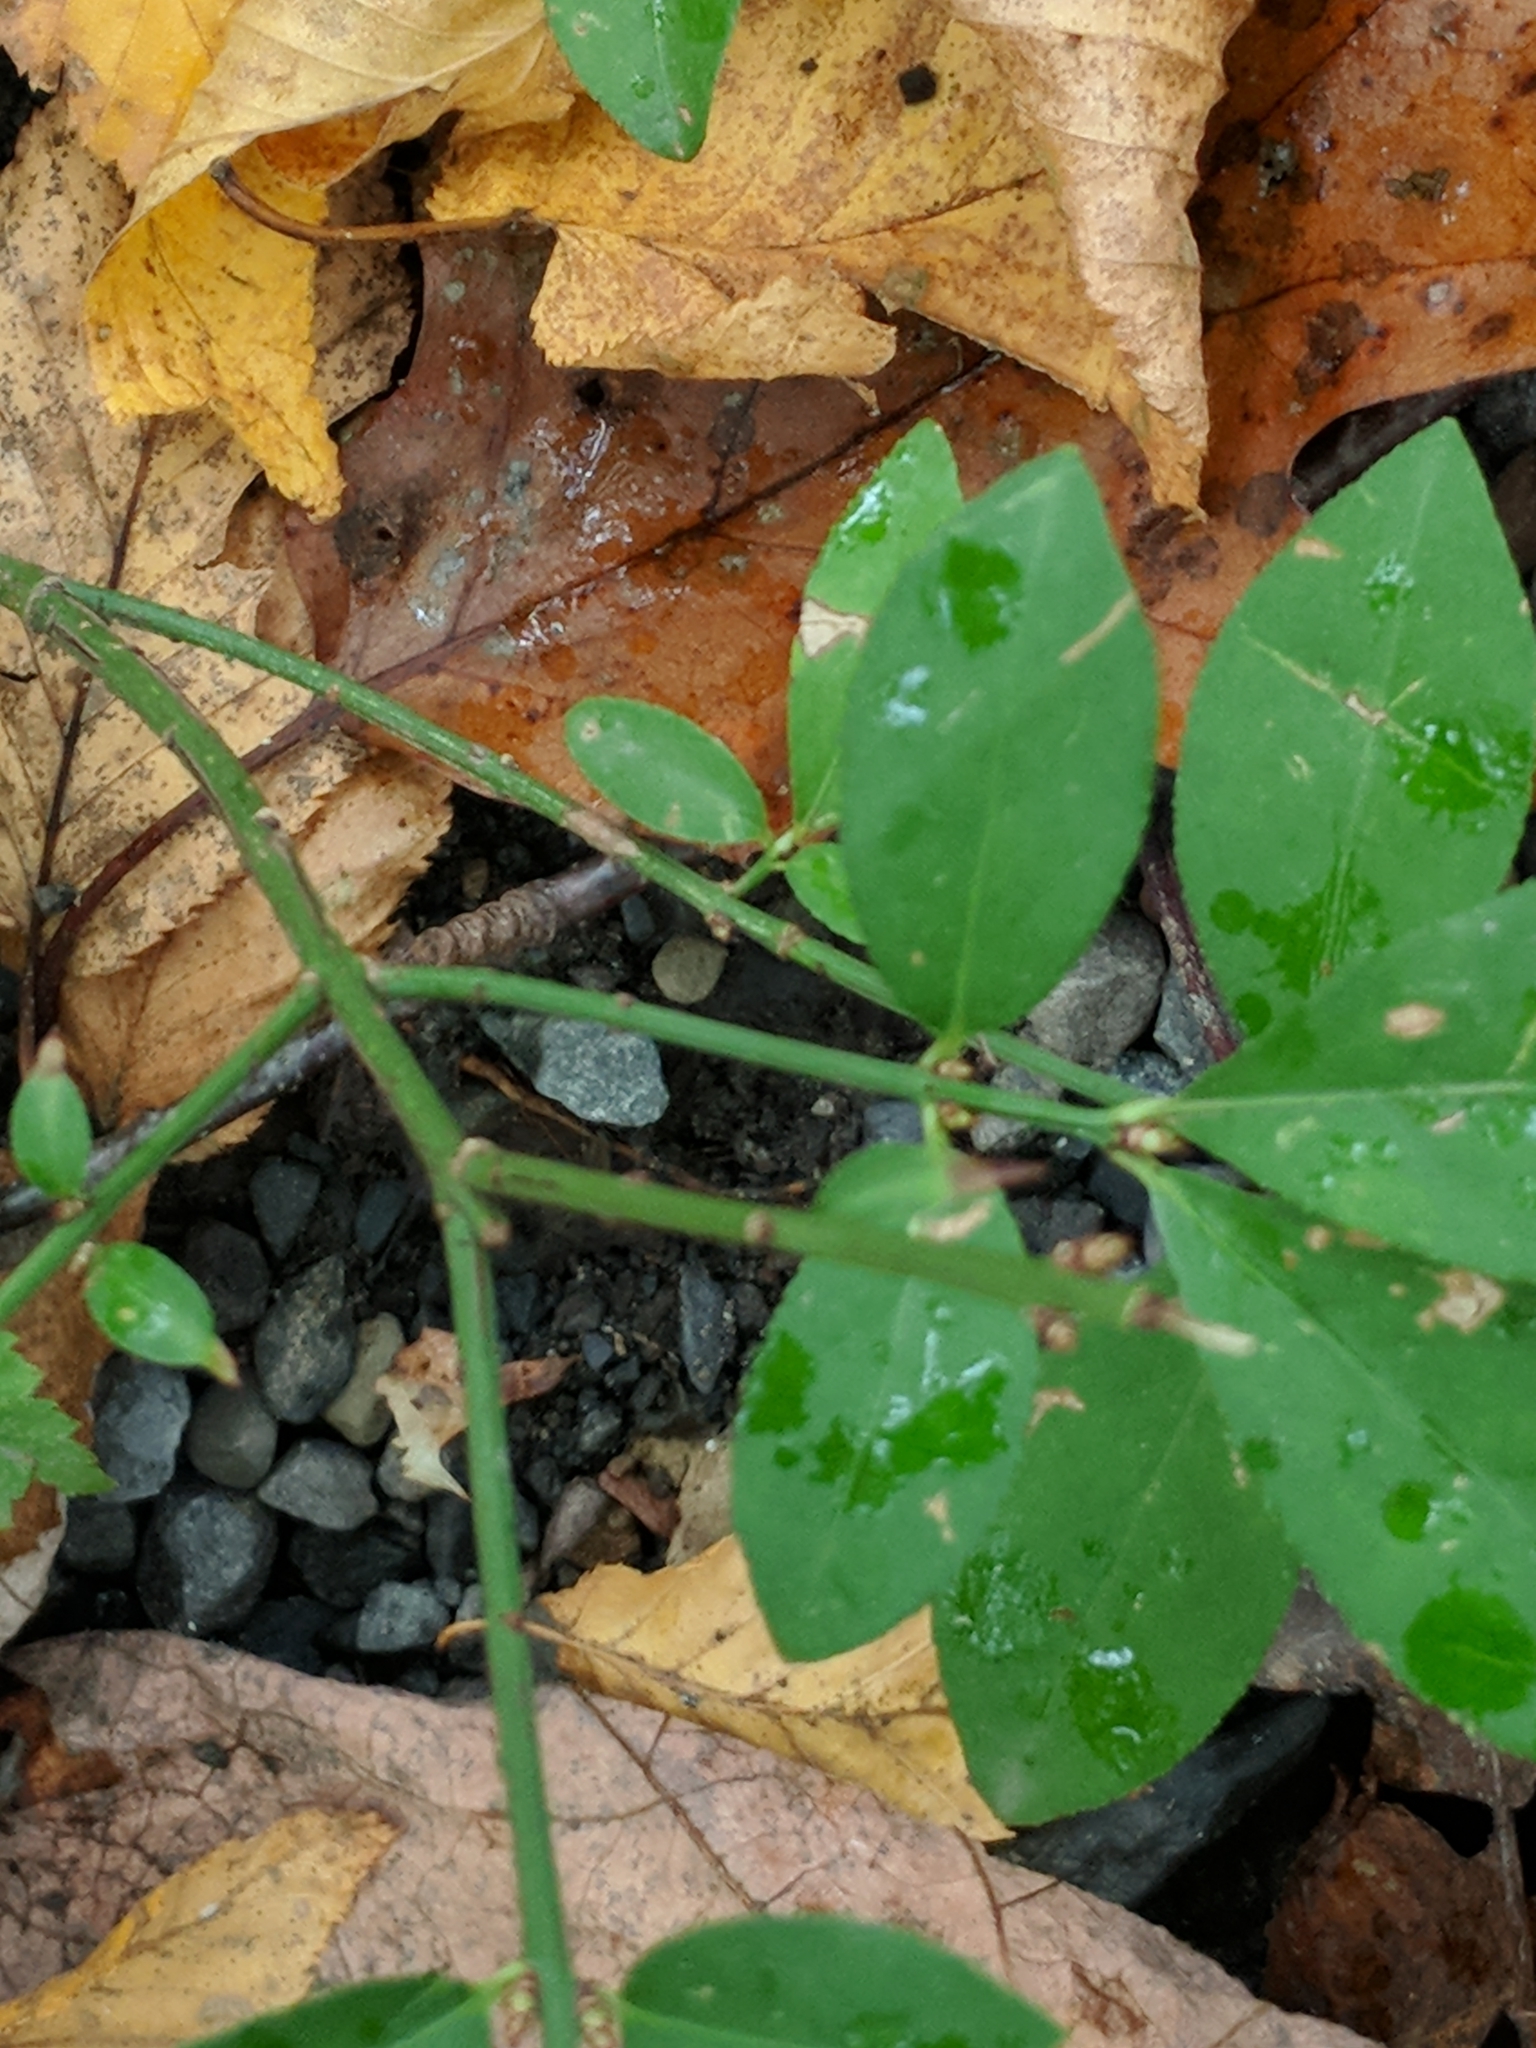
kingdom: Plantae
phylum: Tracheophyta
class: Magnoliopsida
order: Celastrales
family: Celastraceae
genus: Euonymus
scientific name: Euonymus alatus
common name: Winged euonymus
